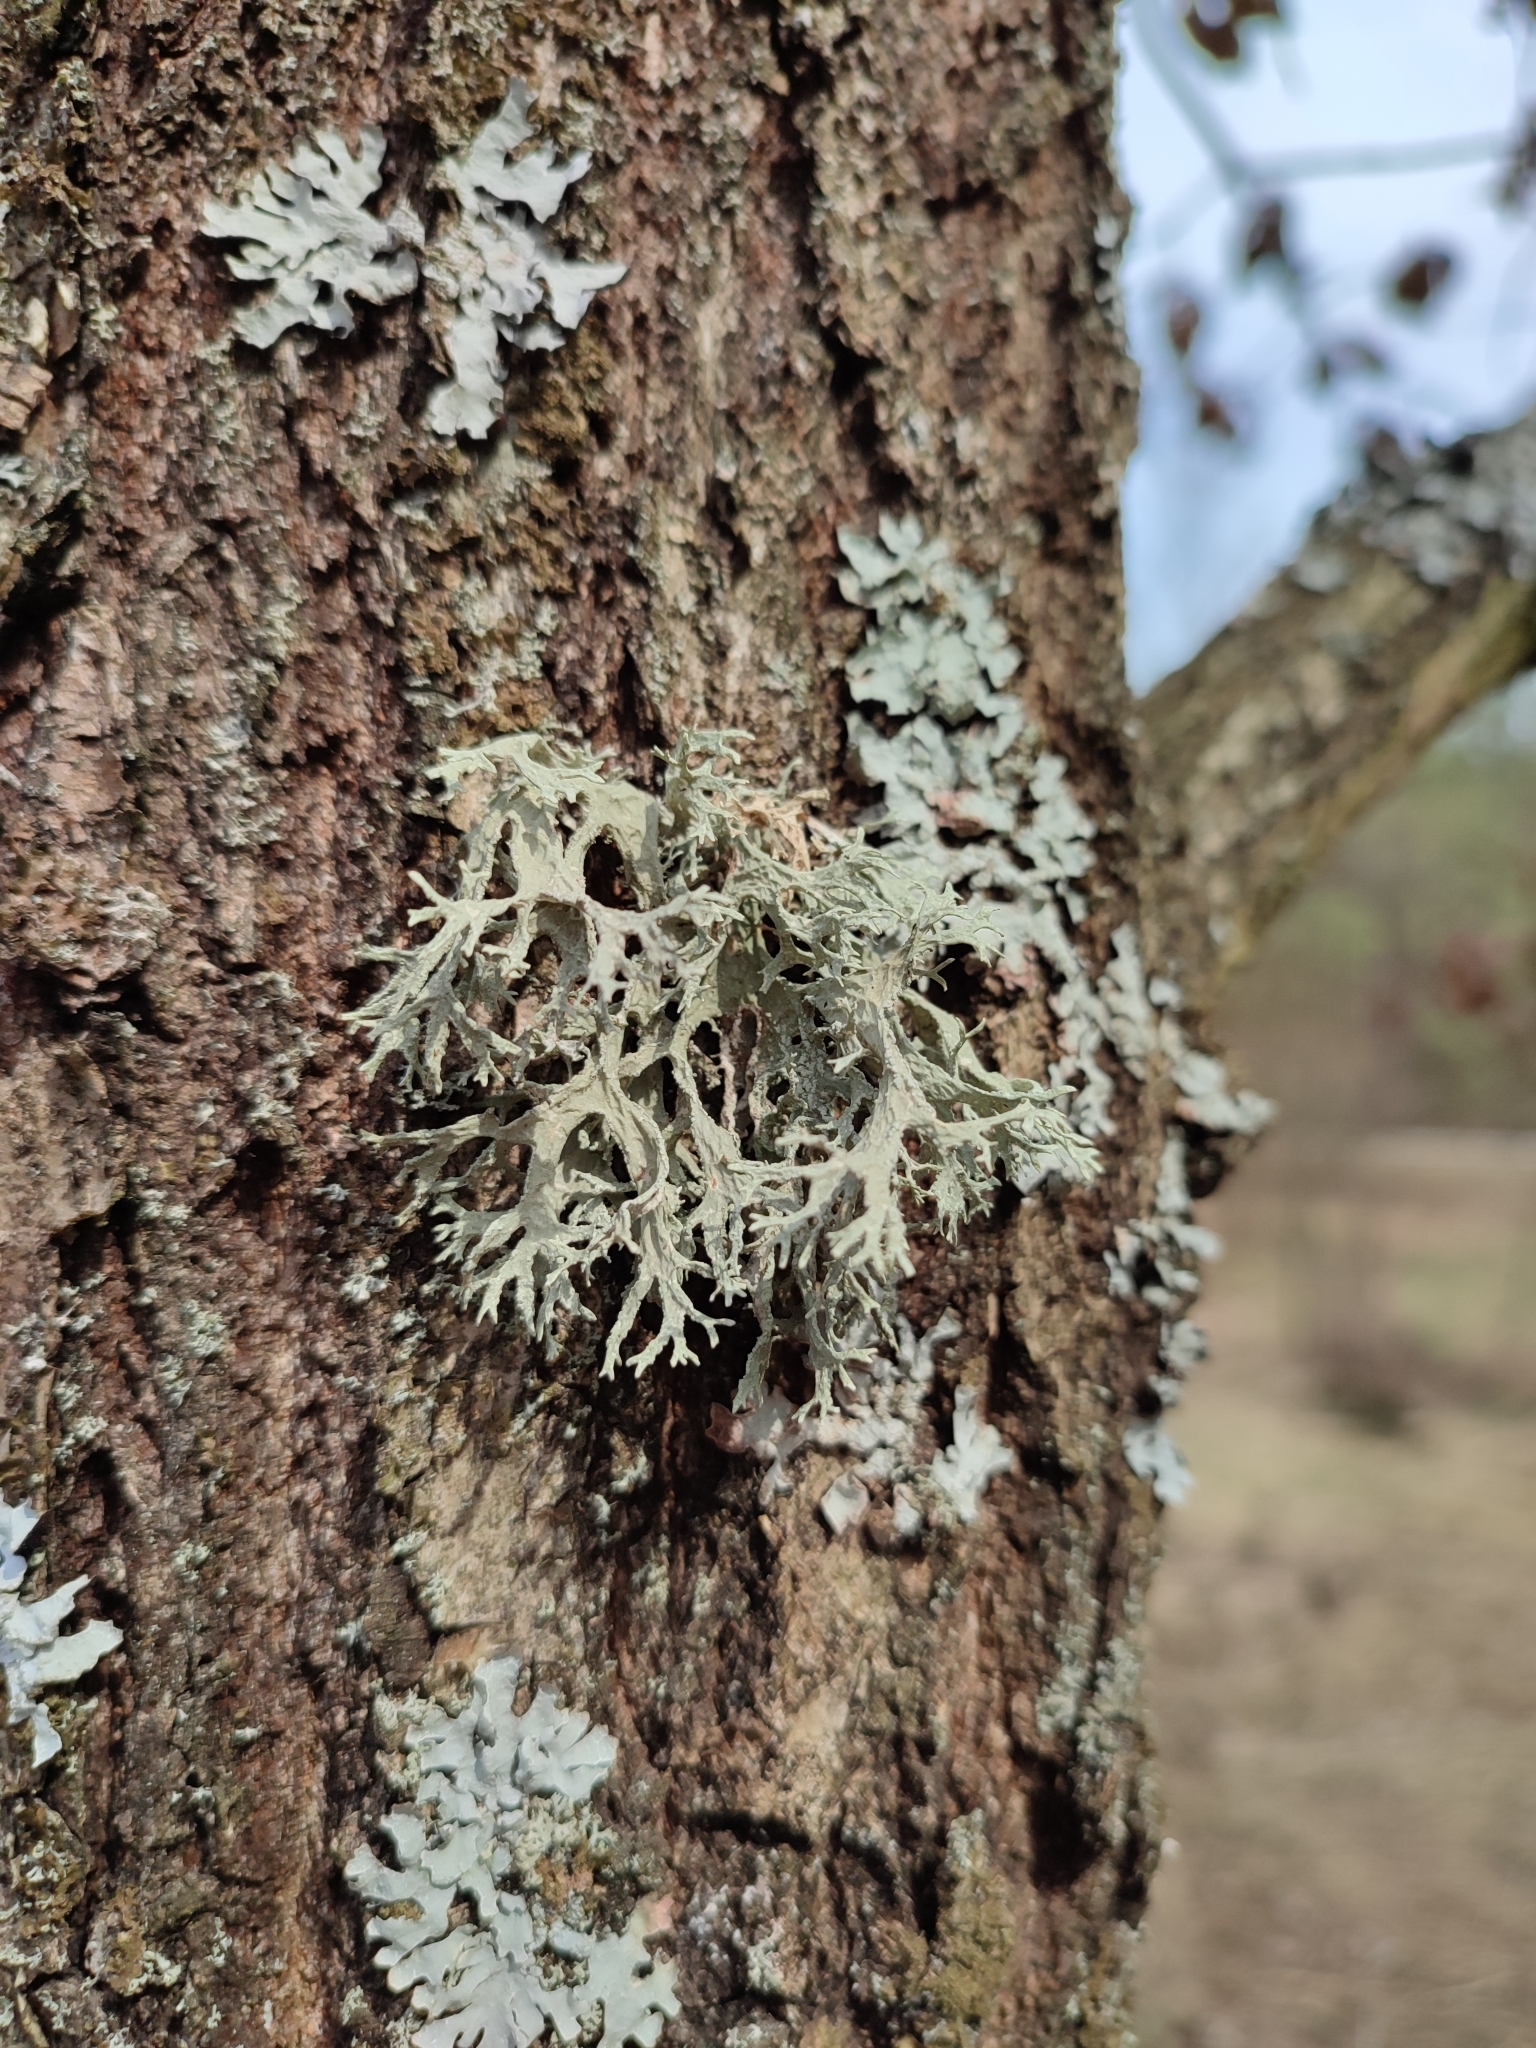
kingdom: Fungi
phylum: Ascomycota
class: Lecanoromycetes
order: Lecanorales
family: Parmeliaceae
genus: Evernia
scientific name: Evernia prunastri
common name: Oak moss
